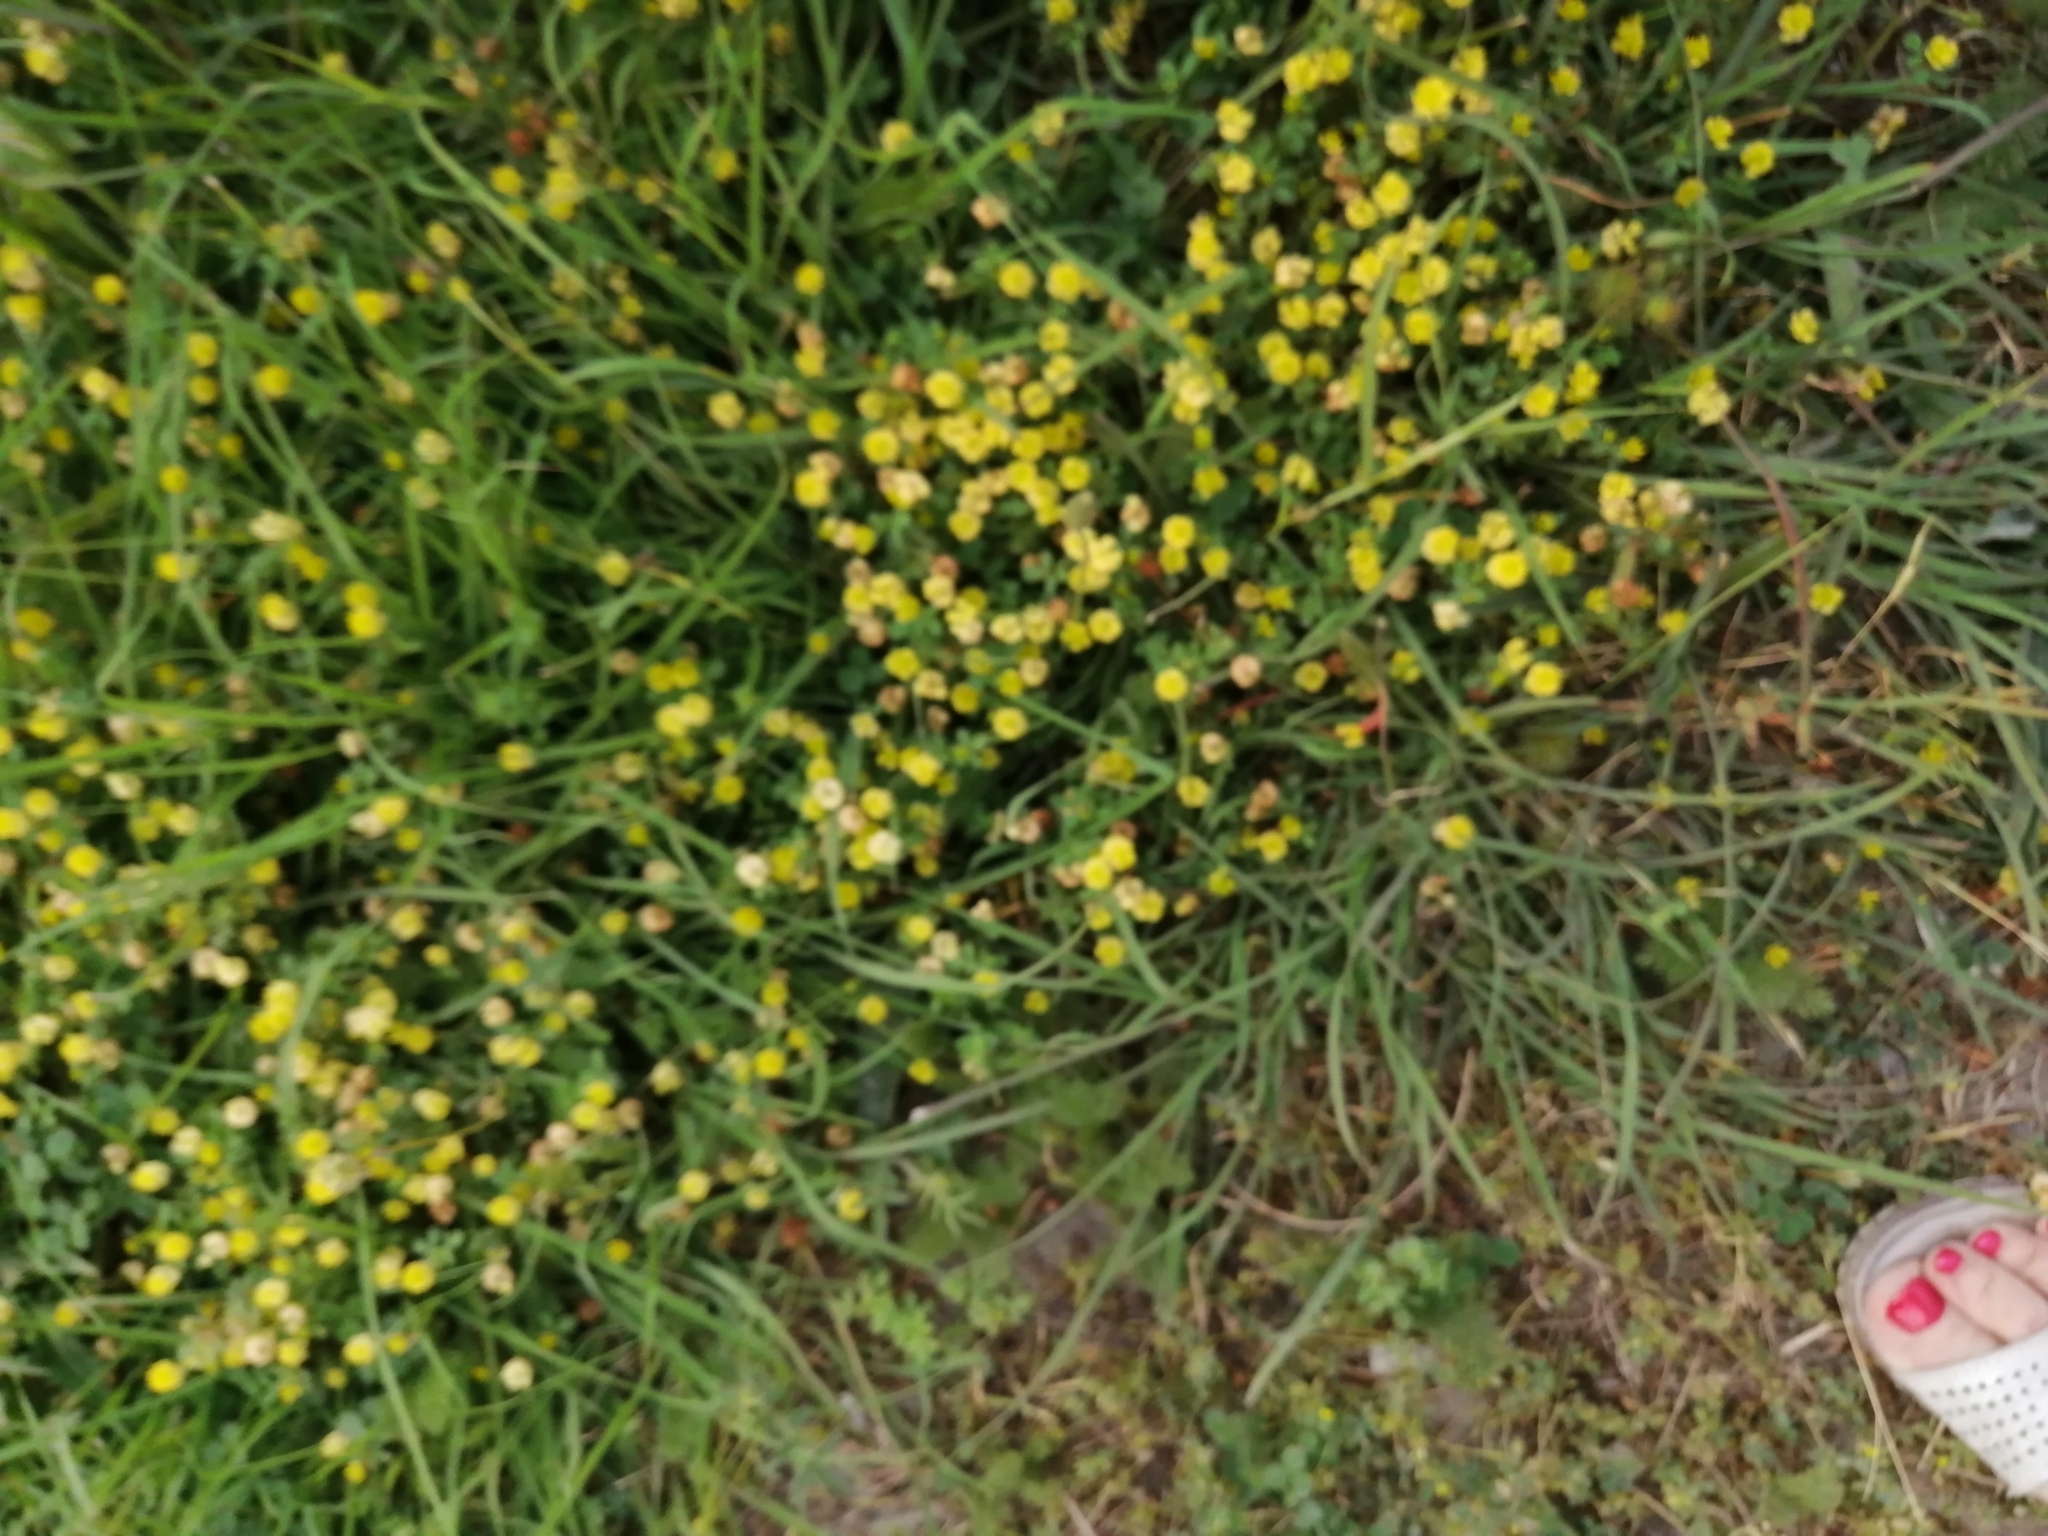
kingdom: Plantae
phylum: Tracheophyta
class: Magnoliopsida
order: Fabales
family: Fabaceae
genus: Trifolium
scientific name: Trifolium campestre
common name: Field clover
